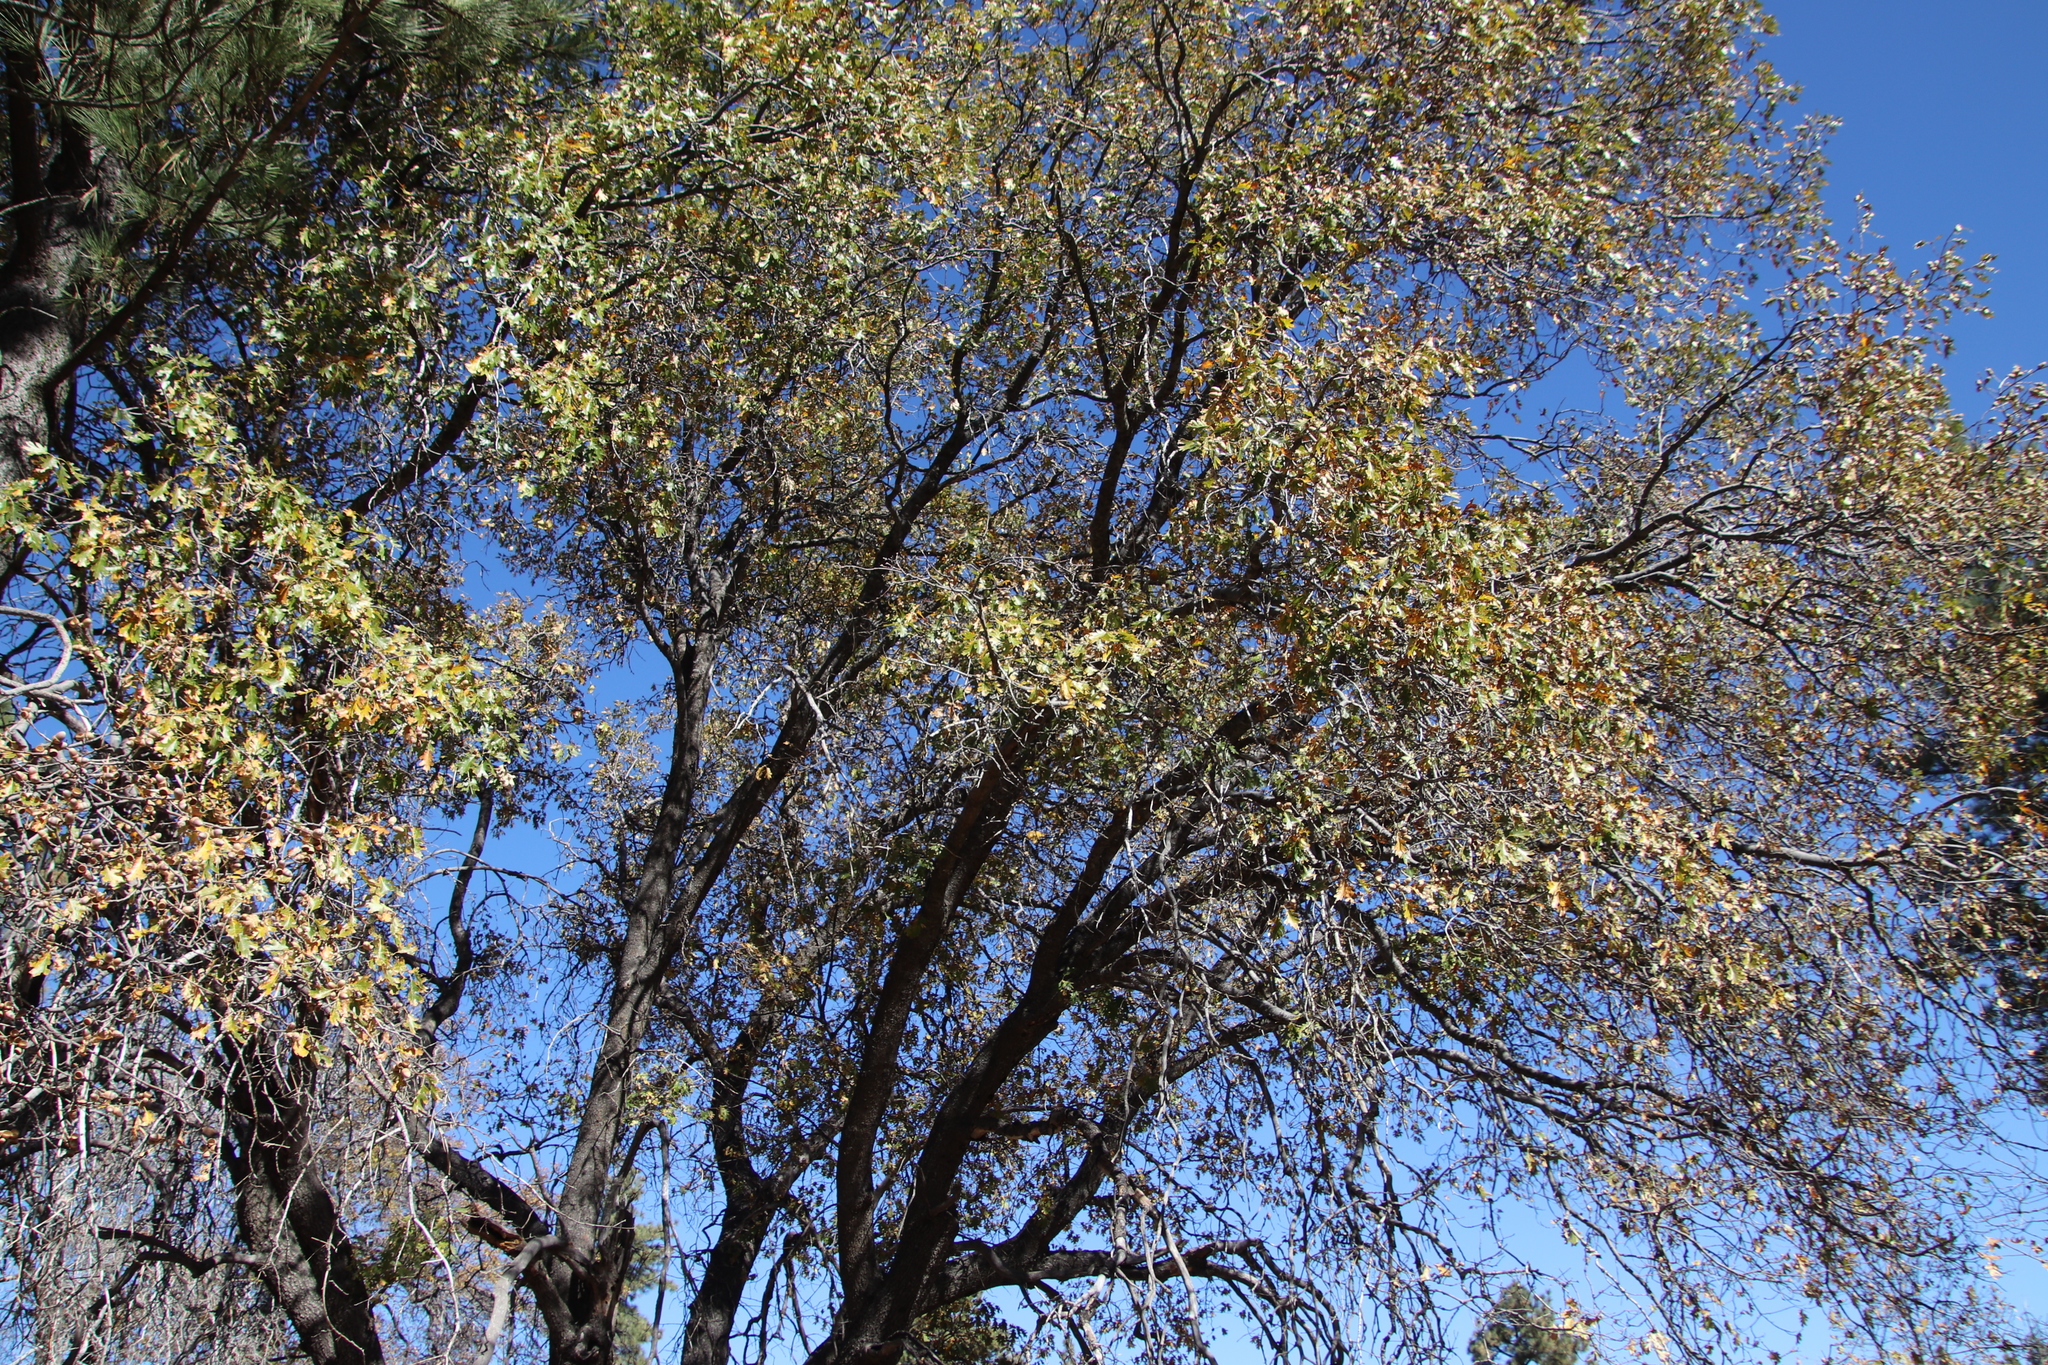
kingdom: Plantae
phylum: Tracheophyta
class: Magnoliopsida
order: Fagales
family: Fagaceae
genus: Quercus
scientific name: Quercus kelloggii
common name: California black oak
